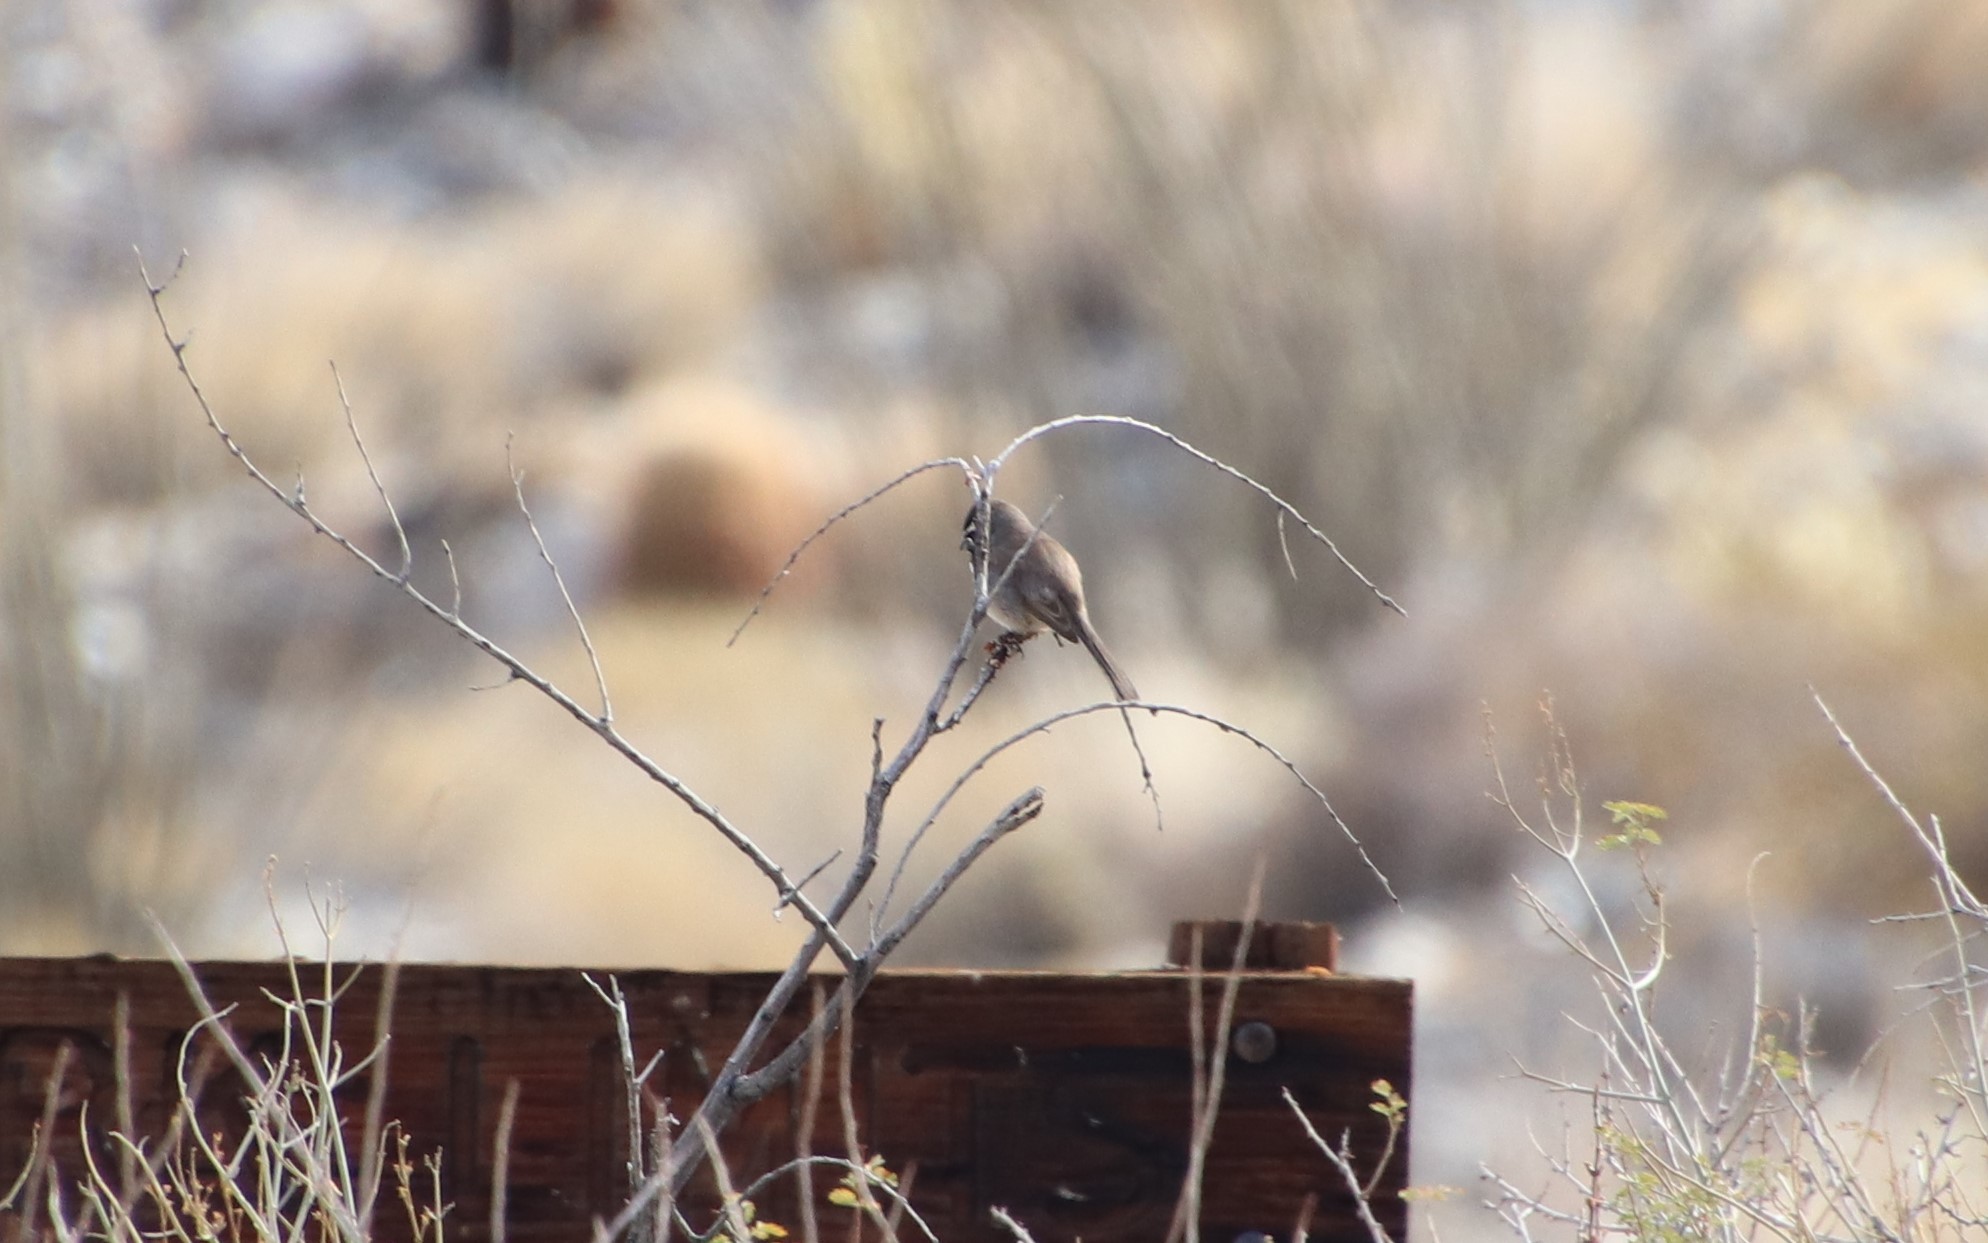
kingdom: Animalia
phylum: Chordata
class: Aves
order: Passeriformes
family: Passerellidae
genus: Amphispiza
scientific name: Amphispiza bilineata
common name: Black-throated sparrow
